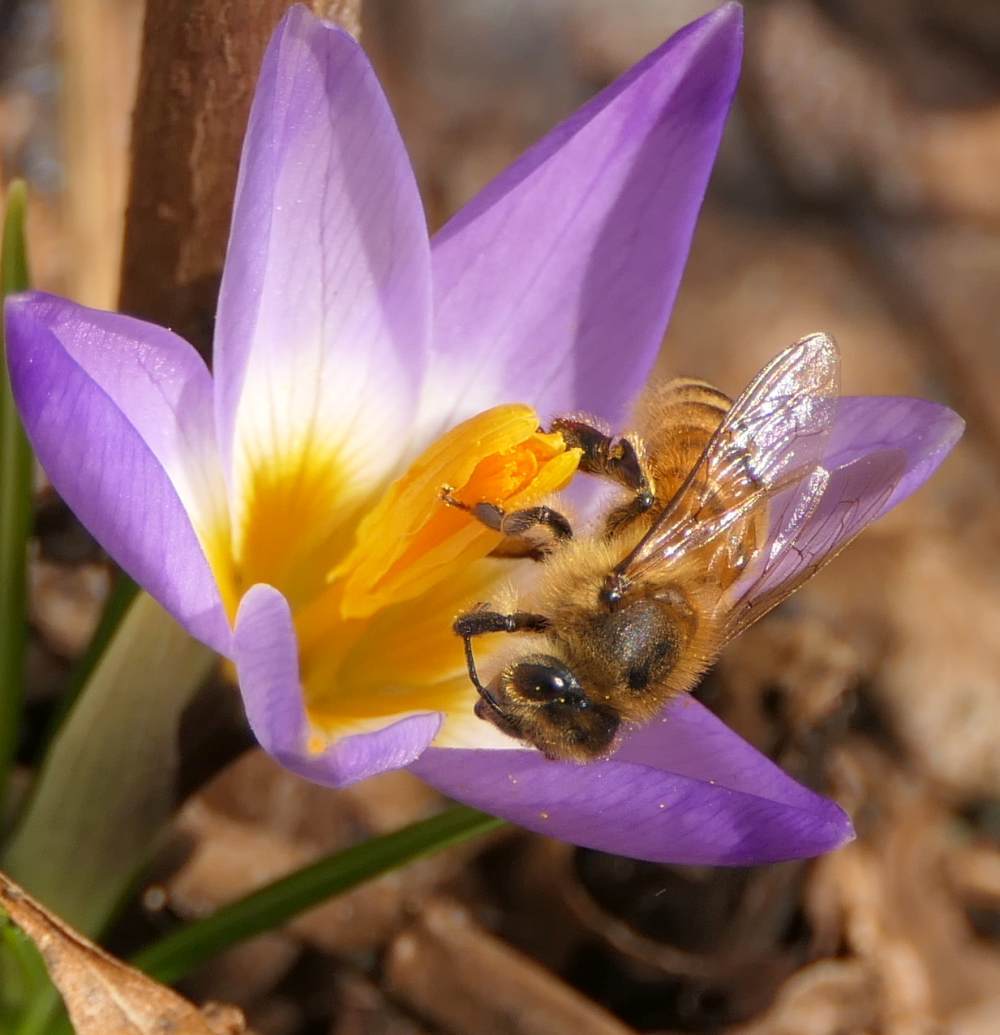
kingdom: Animalia
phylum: Arthropoda
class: Insecta
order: Hymenoptera
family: Apidae
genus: Apis
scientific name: Apis mellifera
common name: Honey bee
